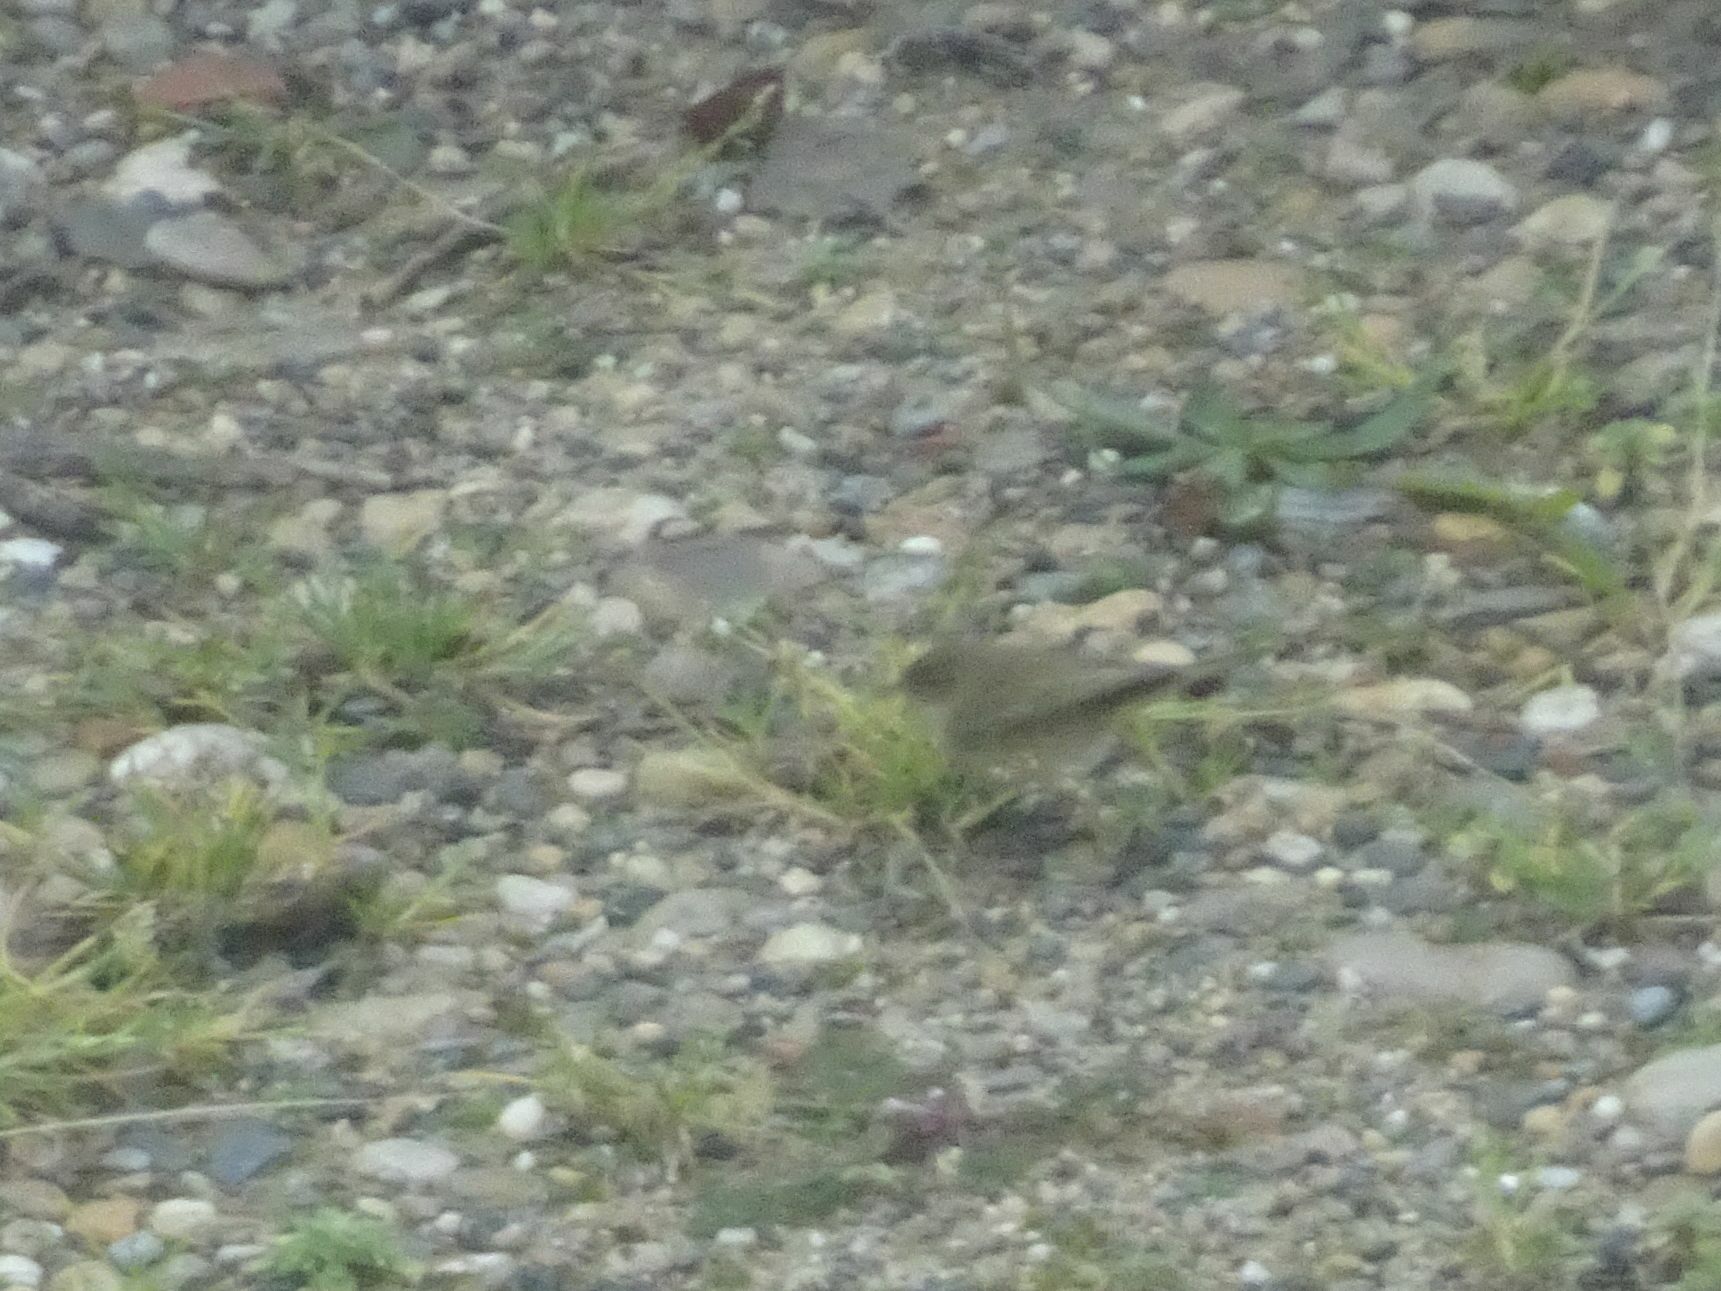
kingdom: Animalia
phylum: Chordata
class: Aves
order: Passeriformes
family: Phylloscopidae
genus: Phylloscopus
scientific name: Phylloscopus collybita
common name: Common chiffchaff
